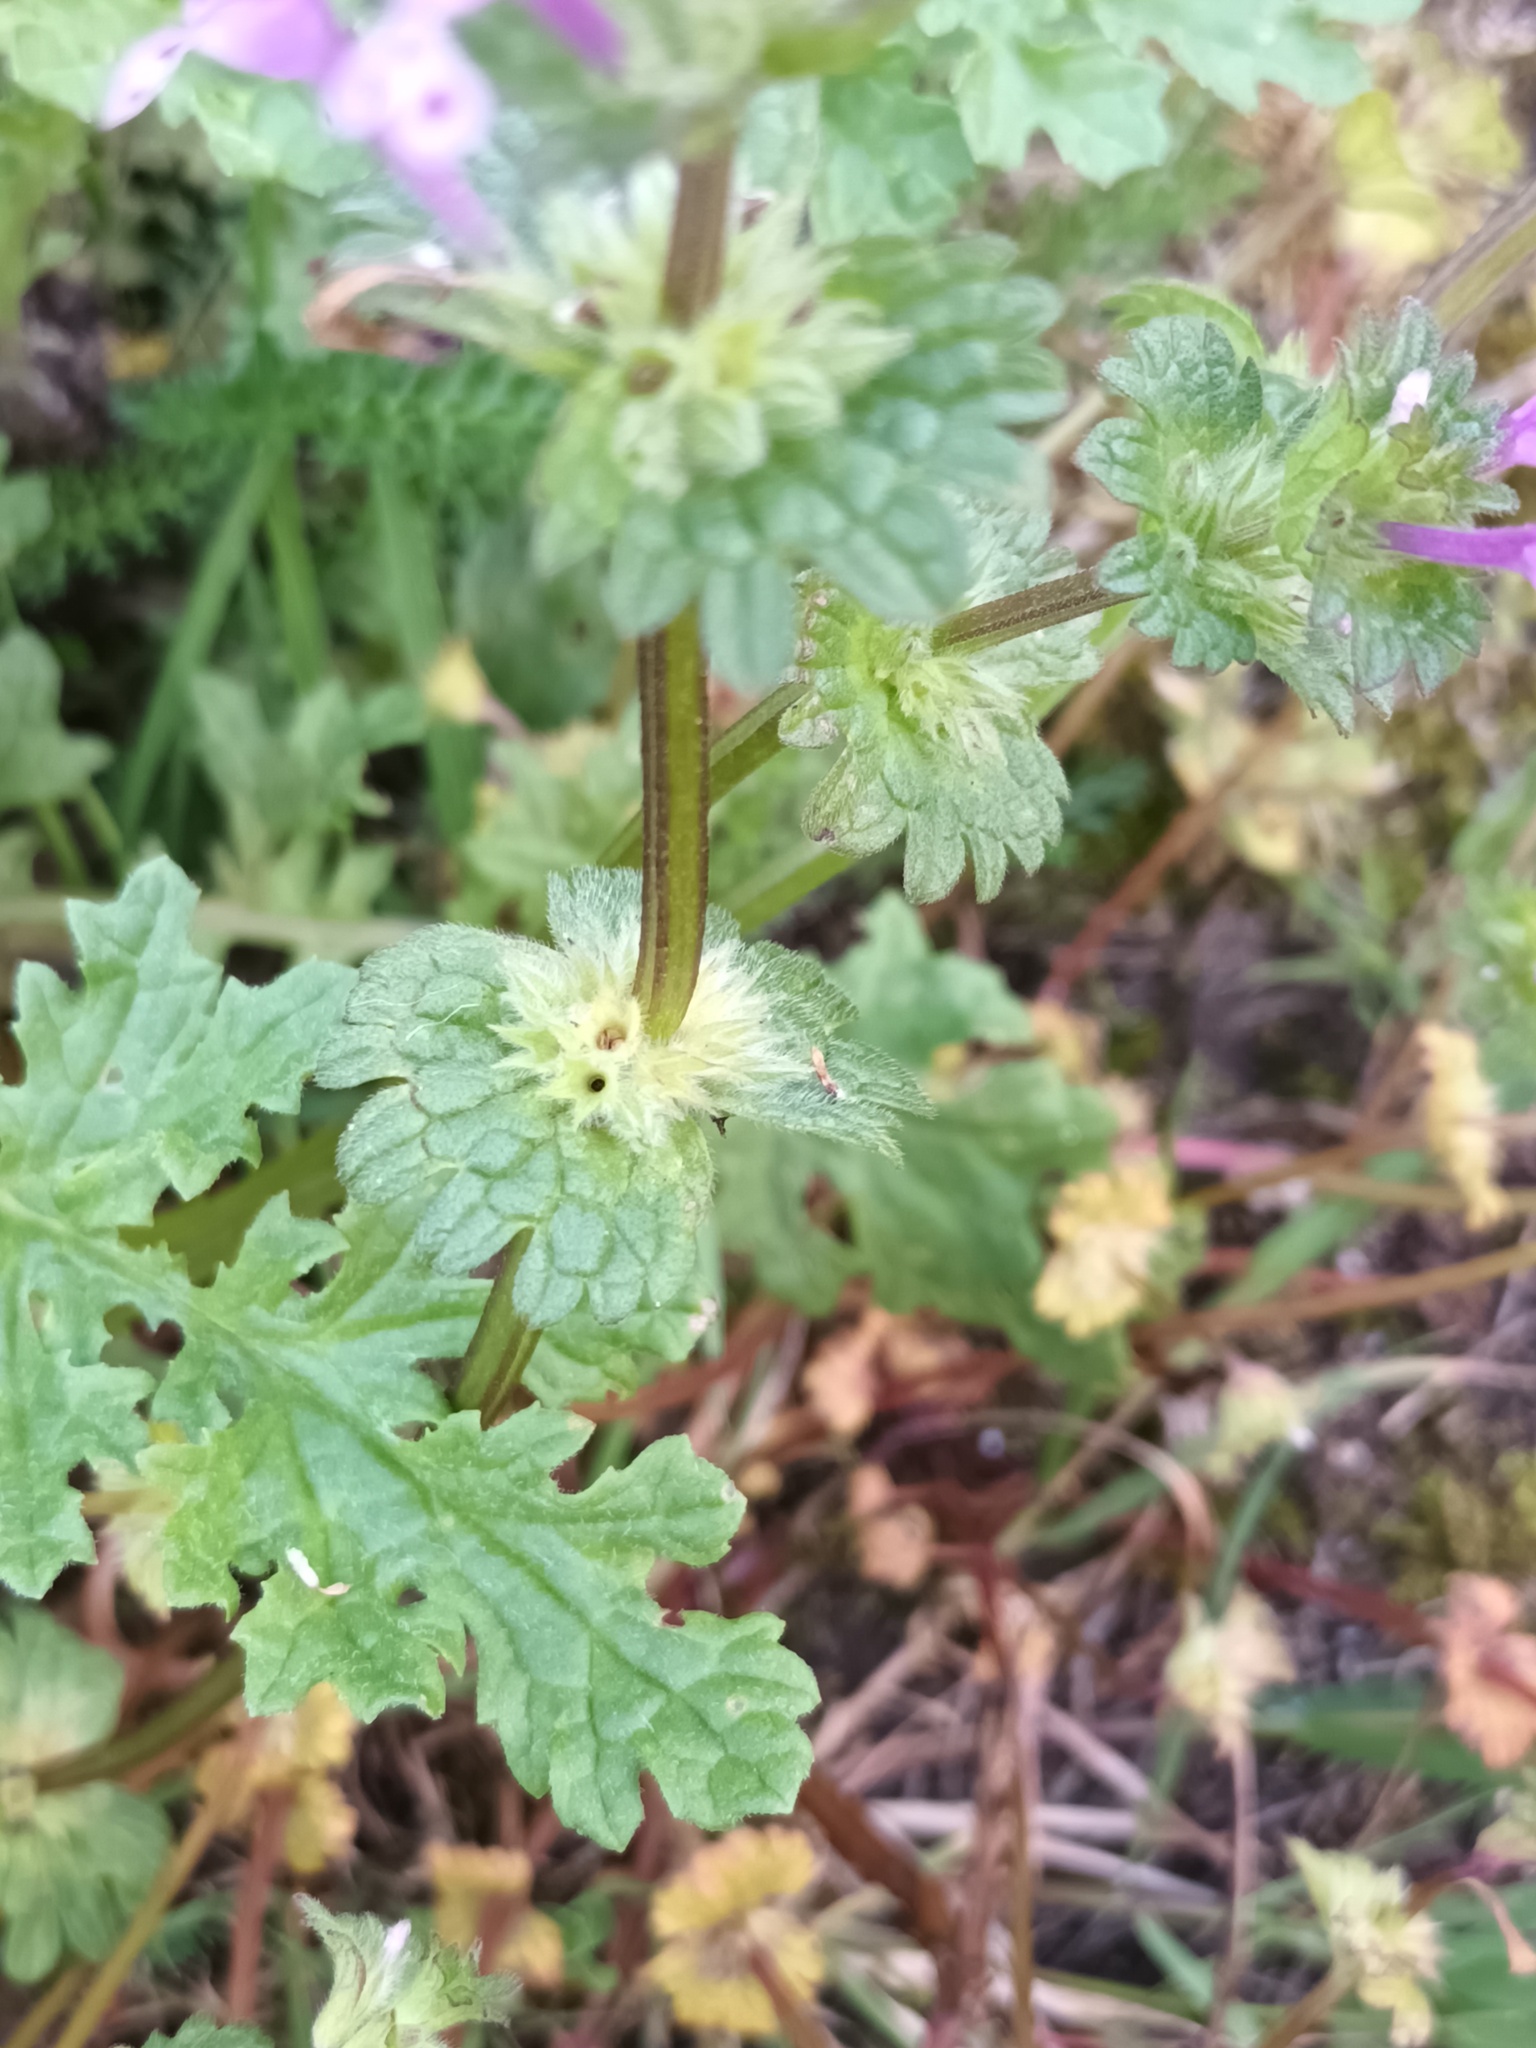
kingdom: Plantae
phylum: Tracheophyta
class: Magnoliopsida
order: Lamiales
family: Lamiaceae
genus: Lamium
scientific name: Lamium amplexicaule
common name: Henbit dead-nettle
